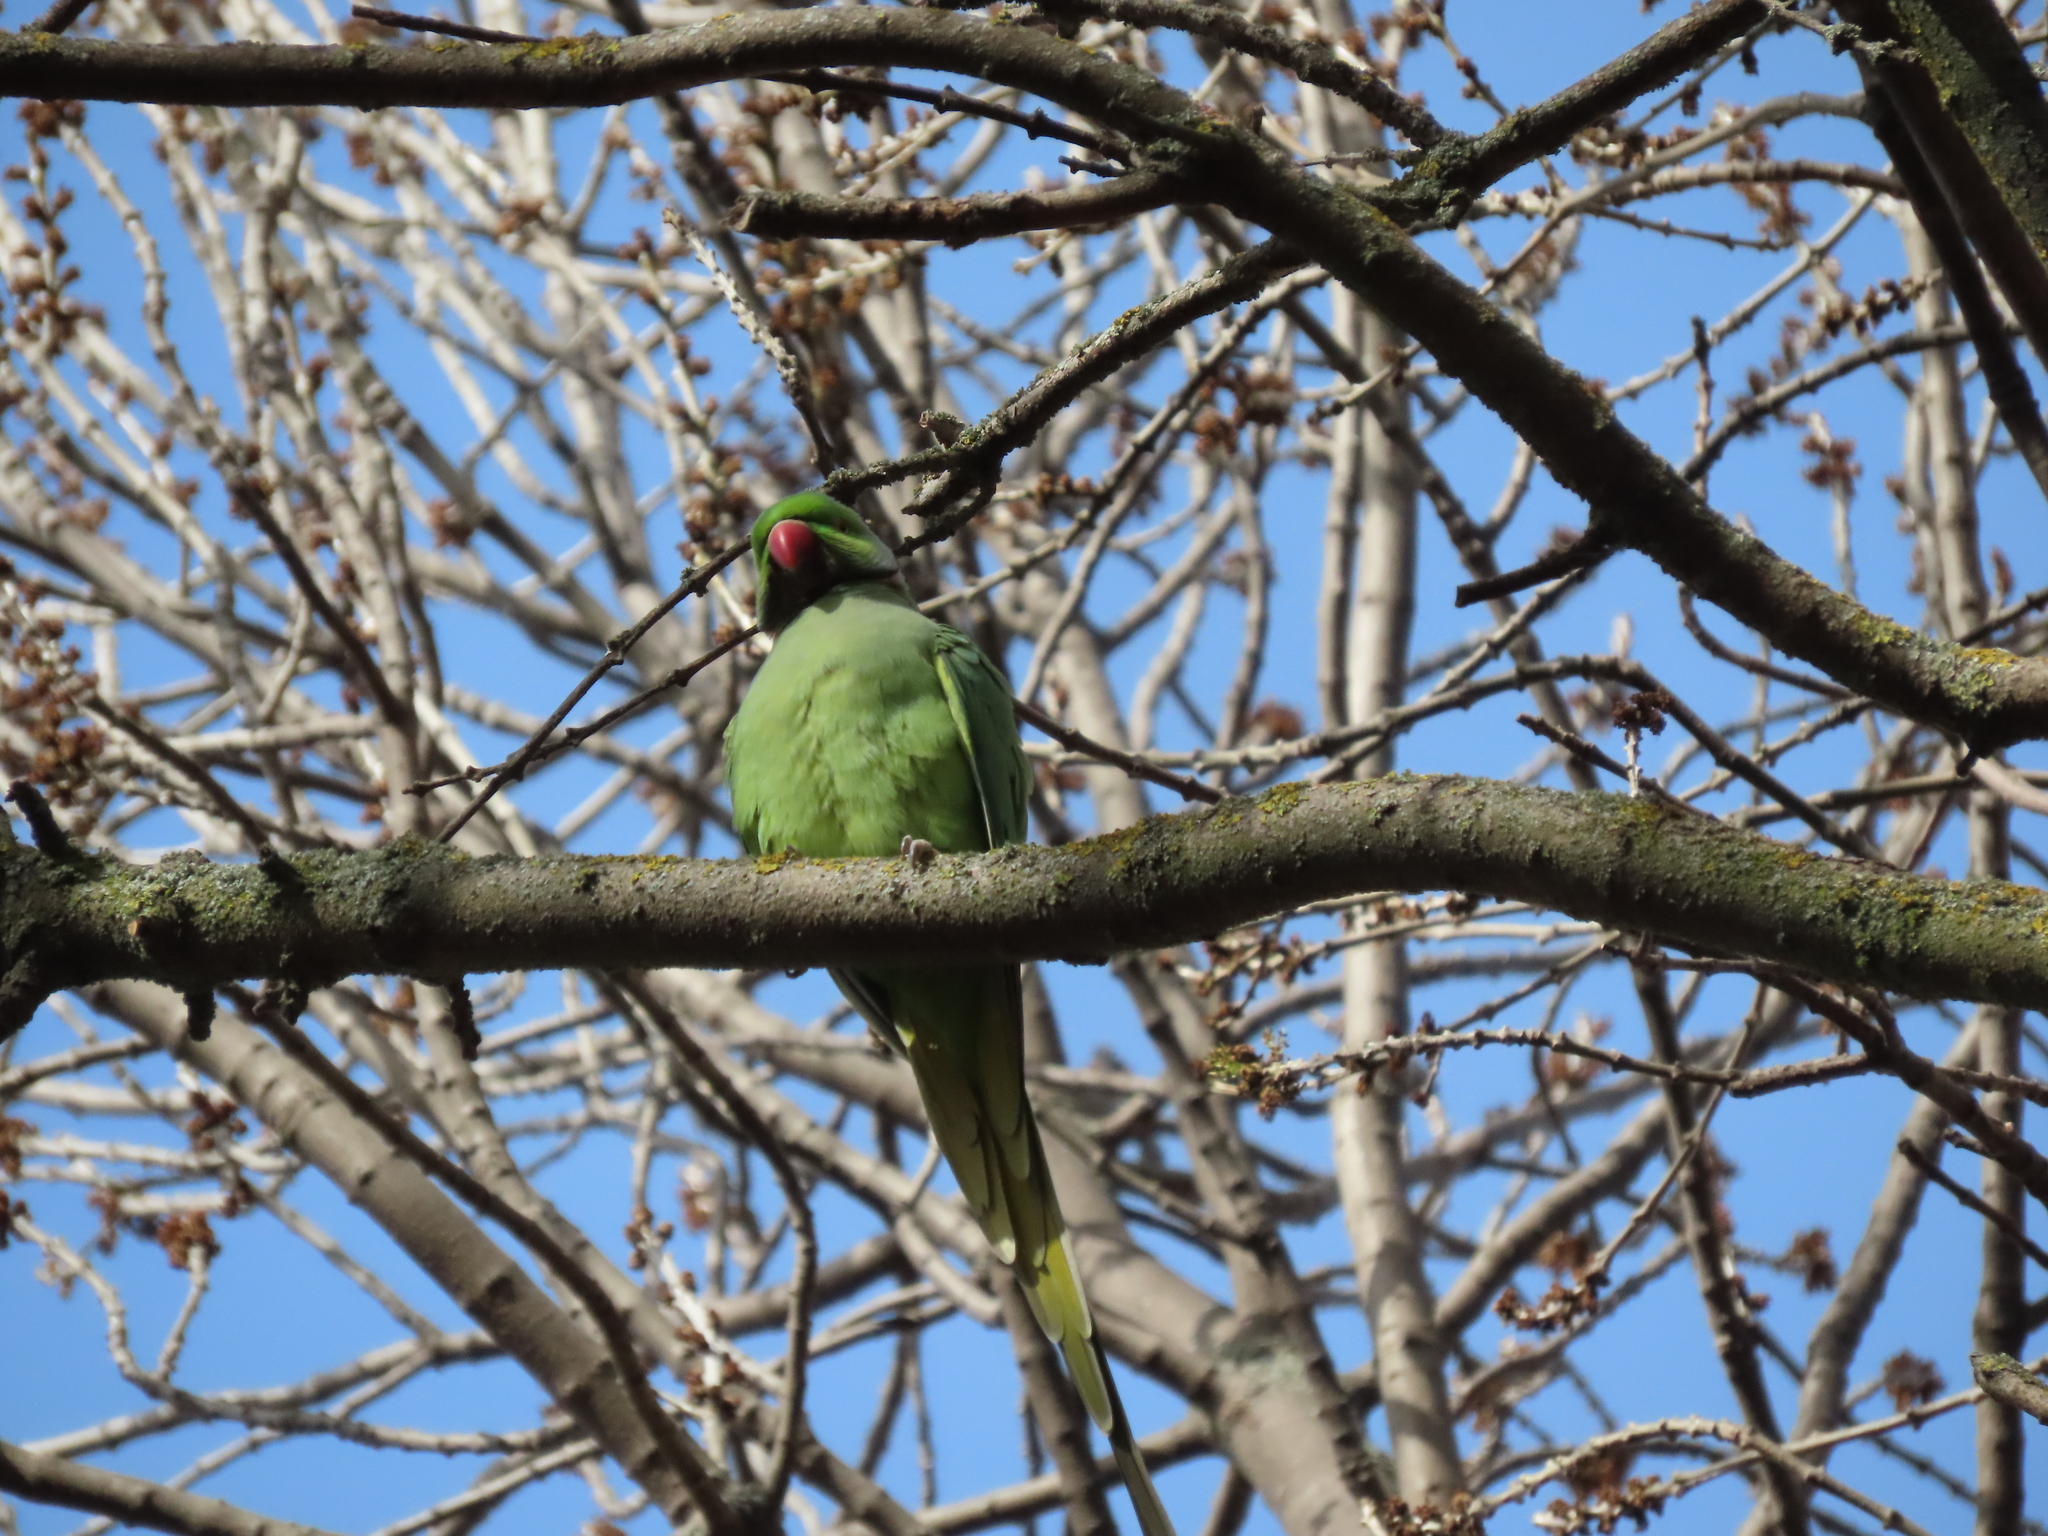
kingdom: Animalia
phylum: Chordata
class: Aves
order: Psittaciformes
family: Psittacidae
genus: Psittacula
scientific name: Psittacula krameri
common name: Rose-ringed parakeet
